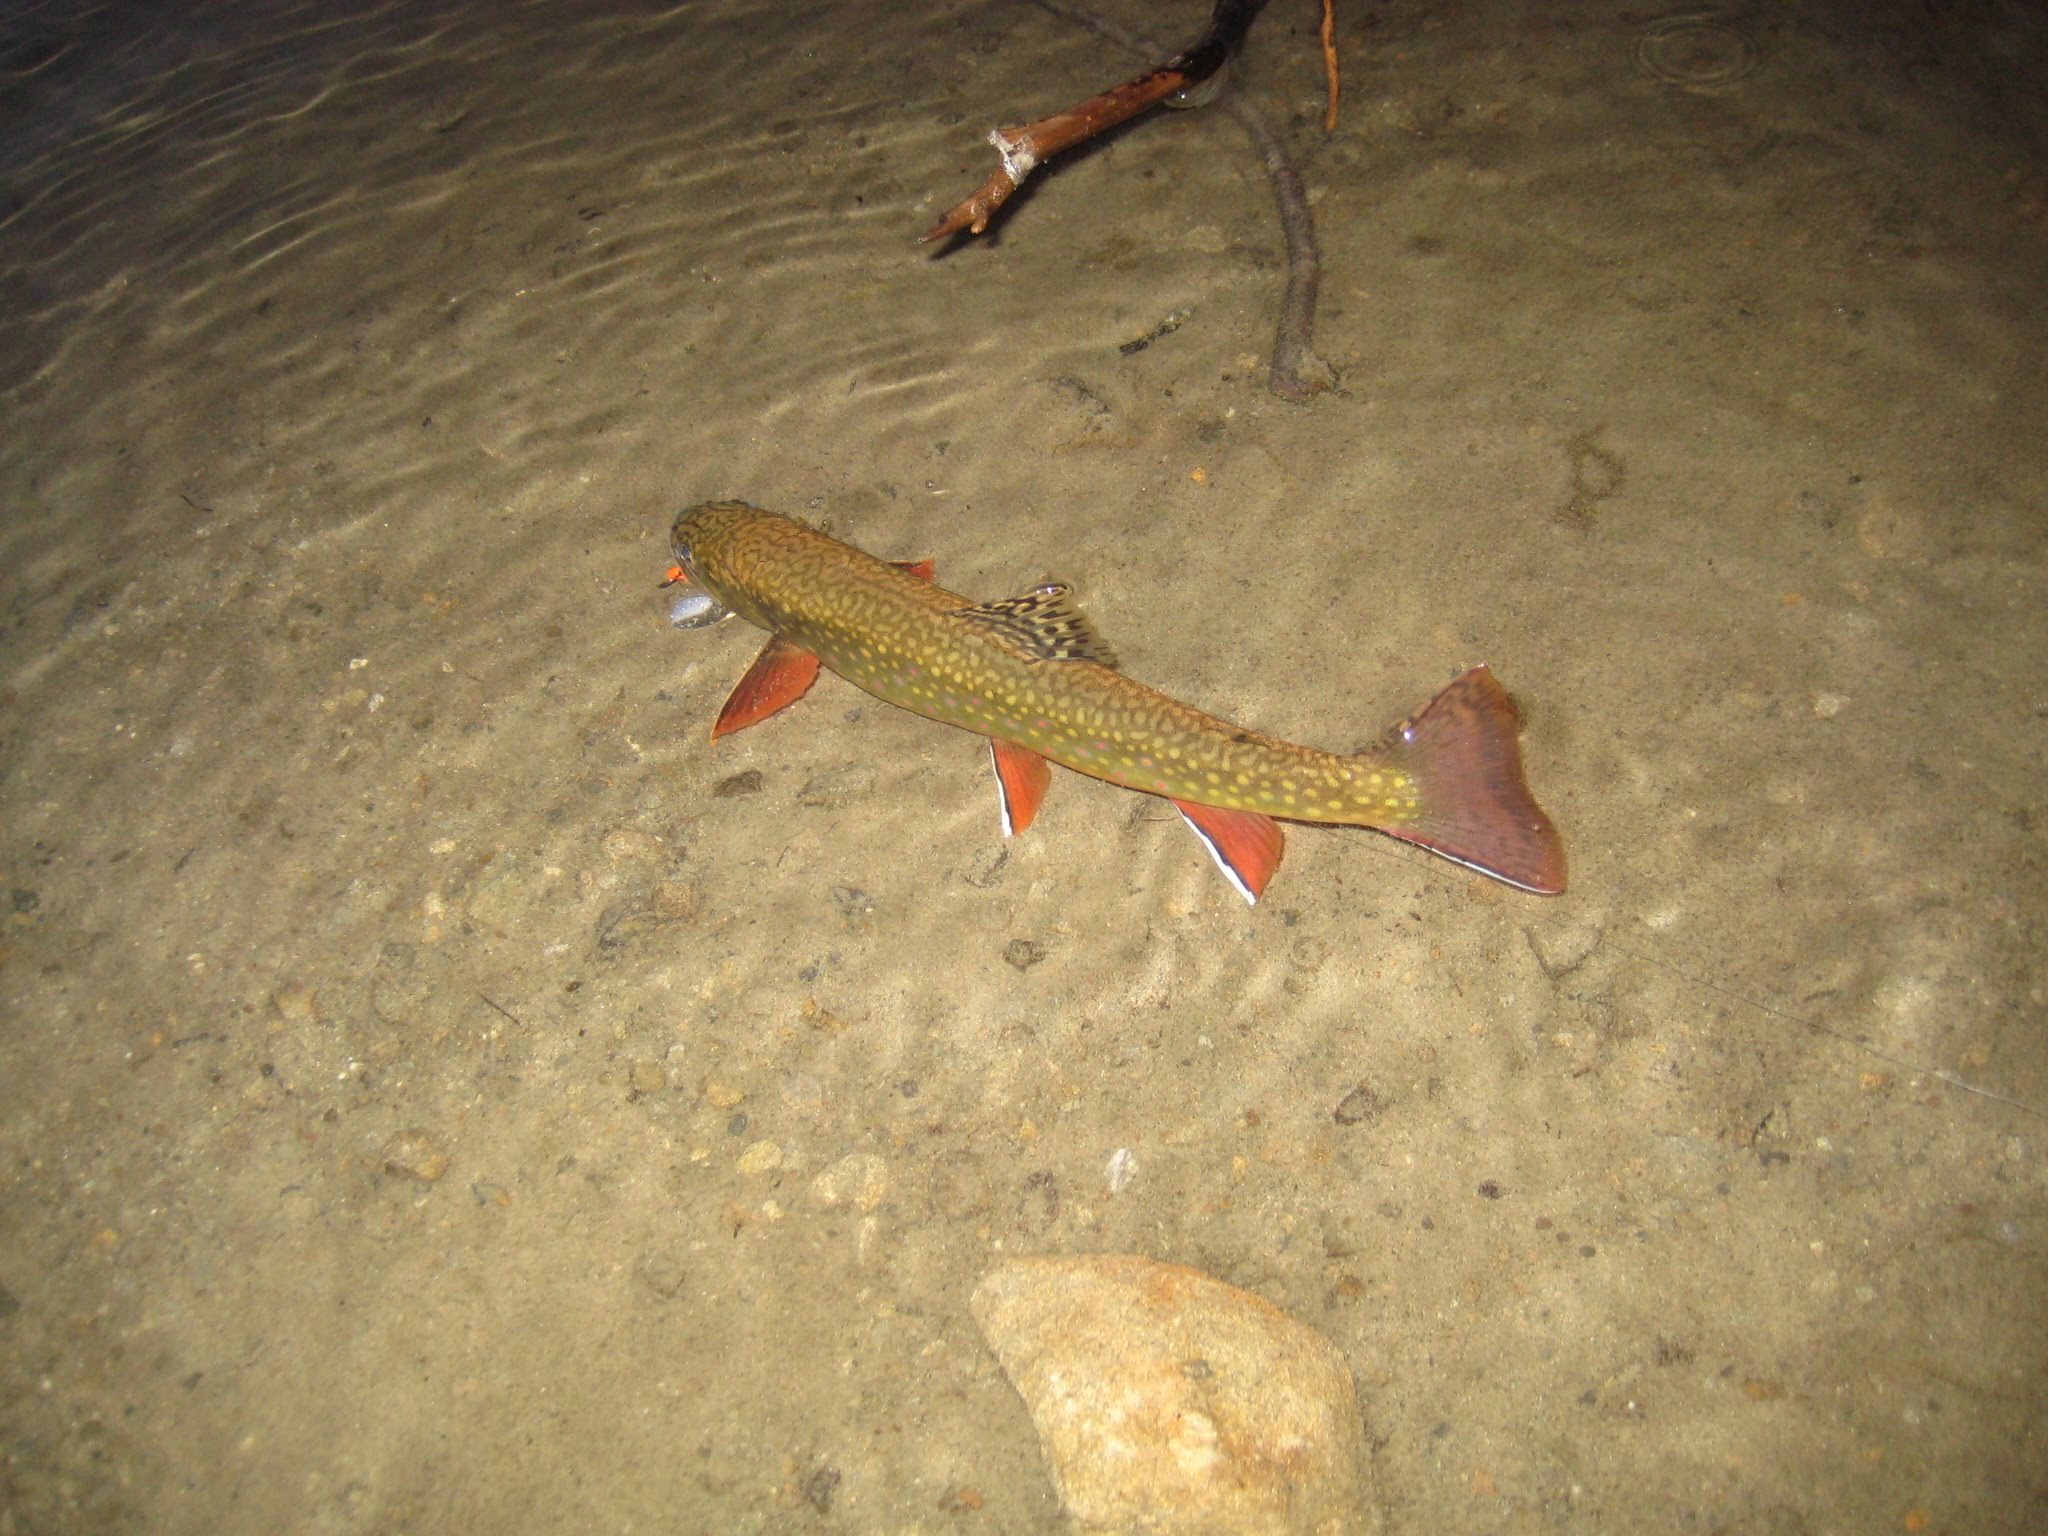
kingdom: Animalia
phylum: Chordata
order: Salmoniformes
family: Salmonidae
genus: Salvelinus
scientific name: Salvelinus fontinalis
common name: Brook trout
